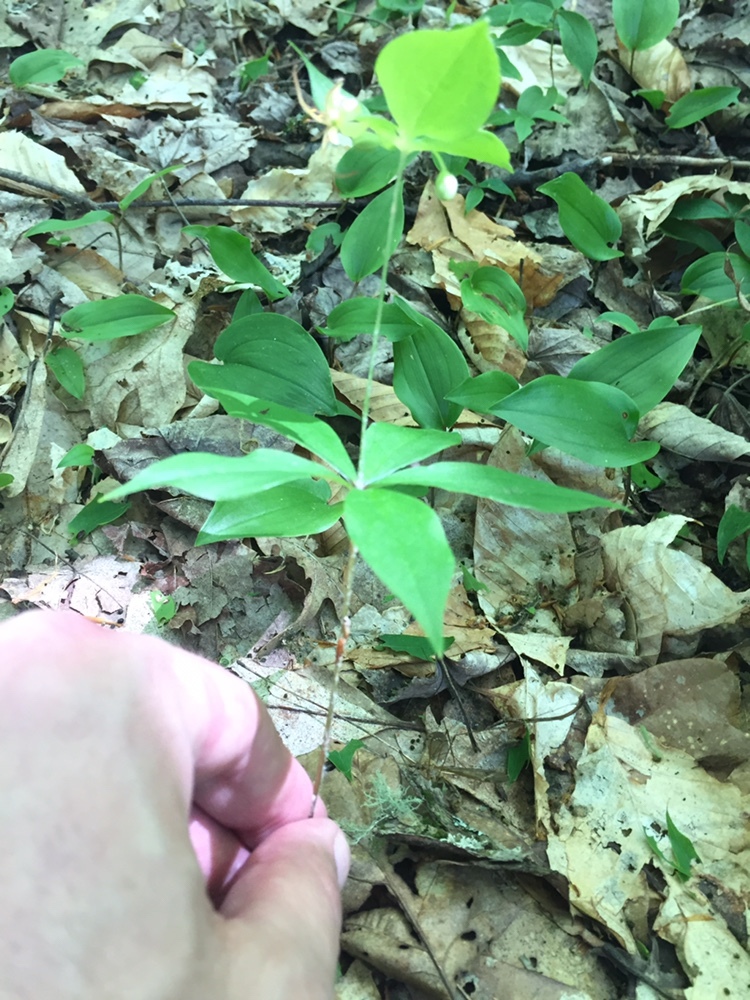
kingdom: Plantae
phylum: Tracheophyta
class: Liliopsida
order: Liliales
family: Liliaceae
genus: Medeola
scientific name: Medeola virginiana
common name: Indian cucumber-root
